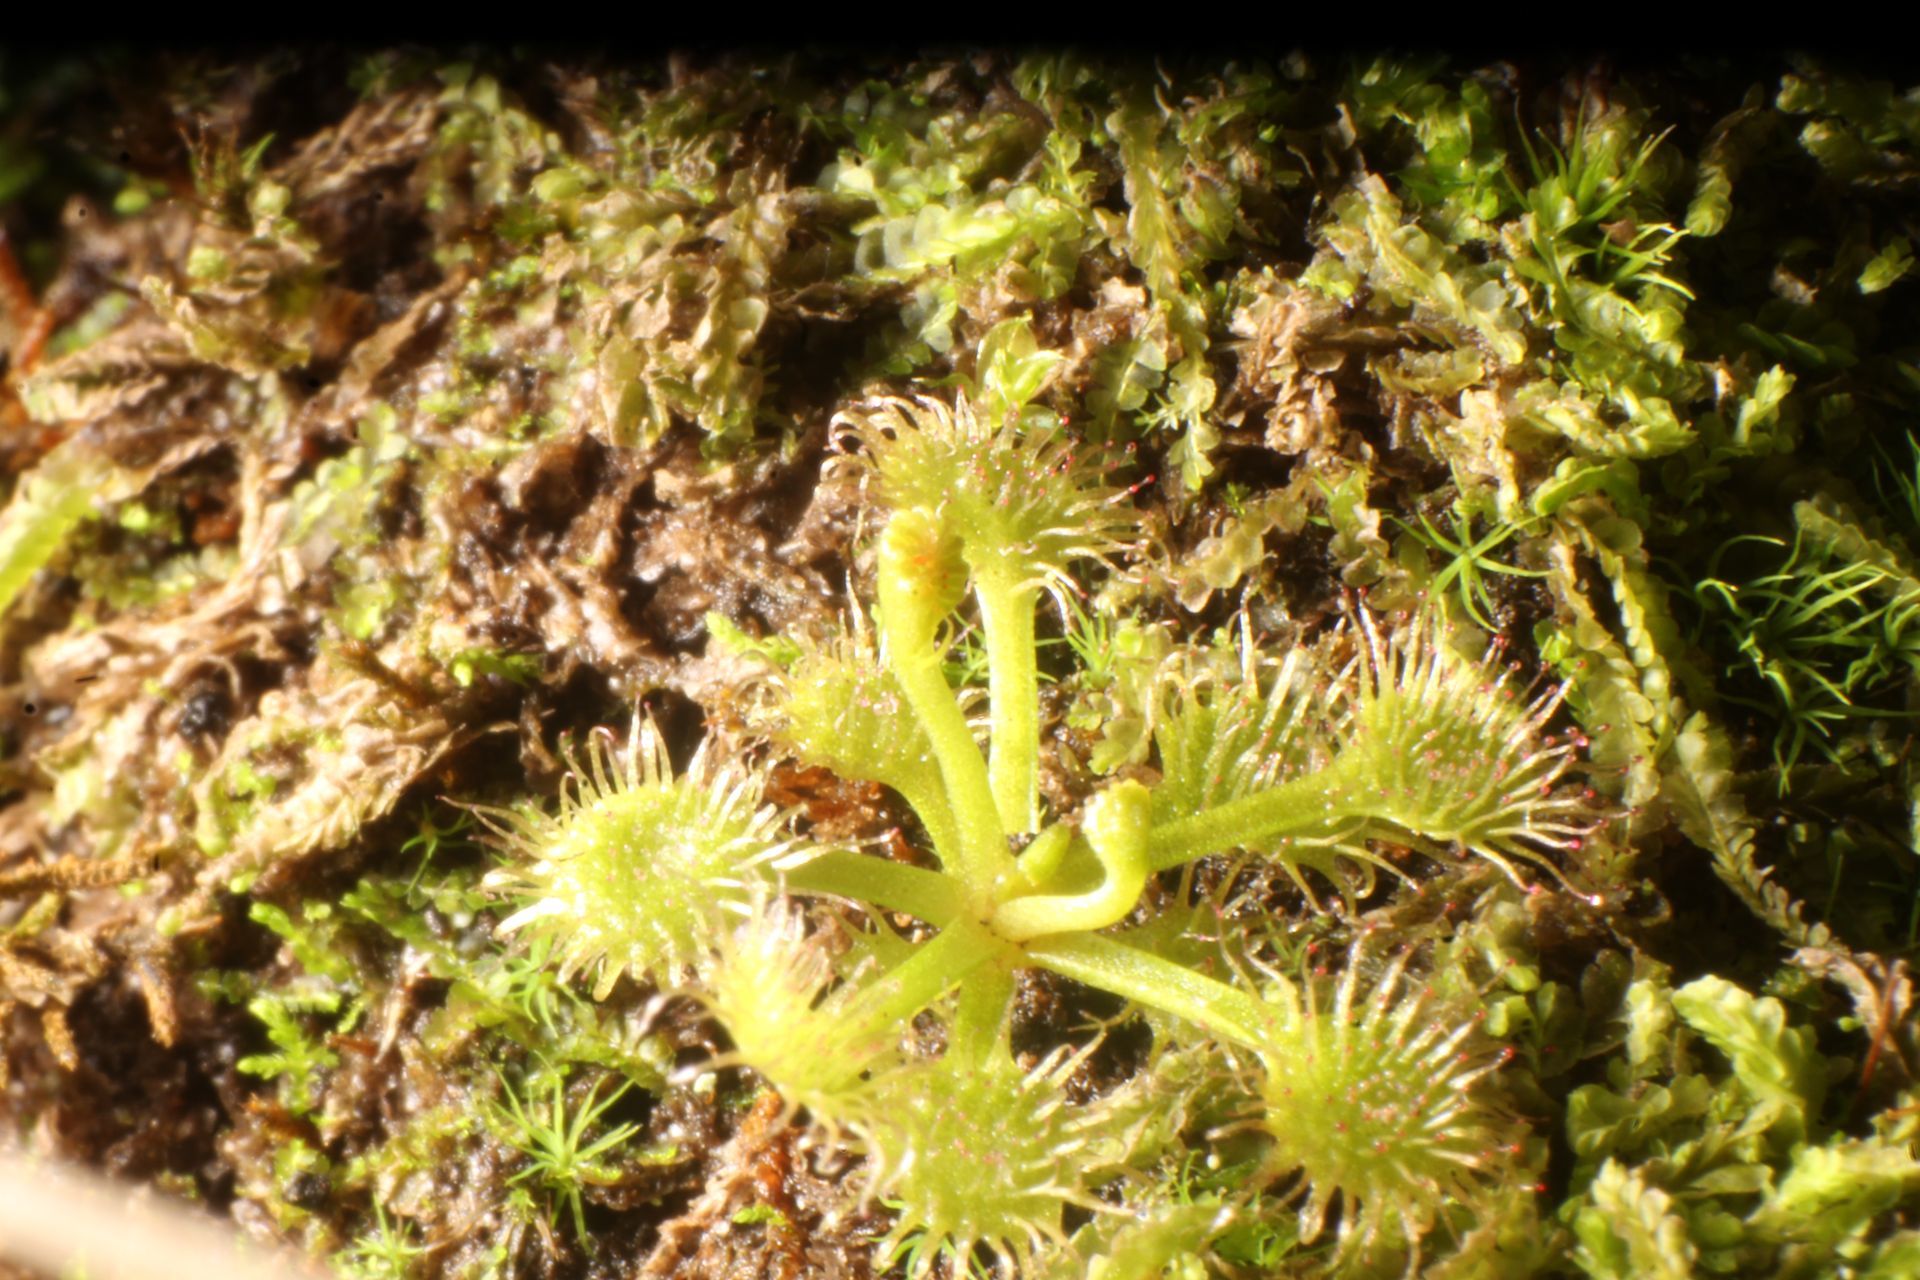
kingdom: Plantae
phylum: Tracheophyta
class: Magnoliopsida
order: Caryophyllales
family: Droseraceae
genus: Drosera
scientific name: Drosera modesta
